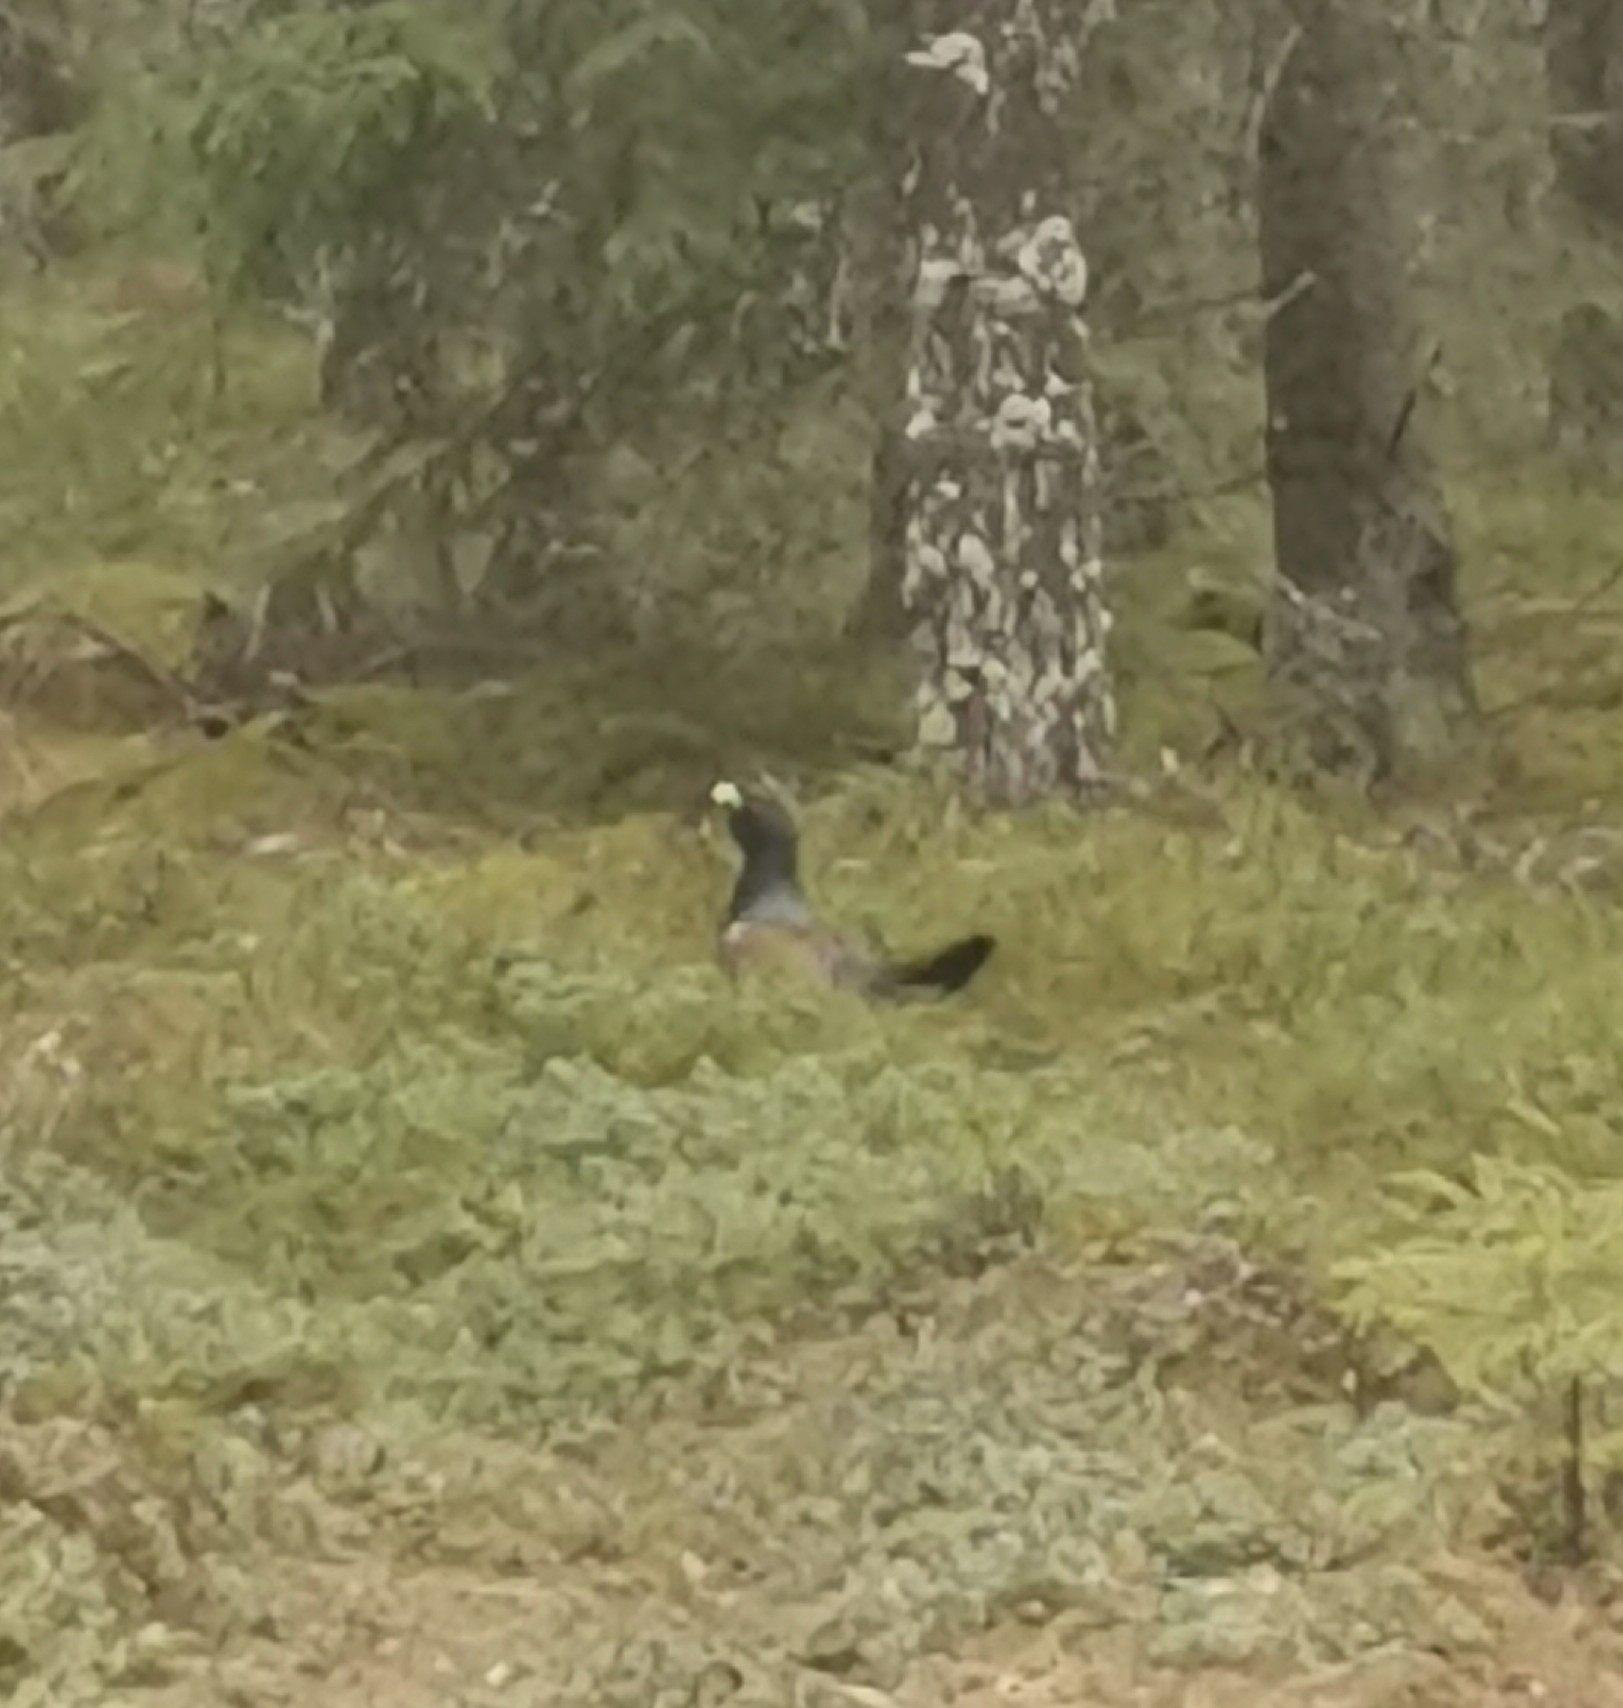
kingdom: Animalia
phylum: Chordata
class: Aves
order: Galliformes
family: Phasianidae
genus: Tetrao
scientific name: Tetrao urogallus
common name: Western capercaillie
